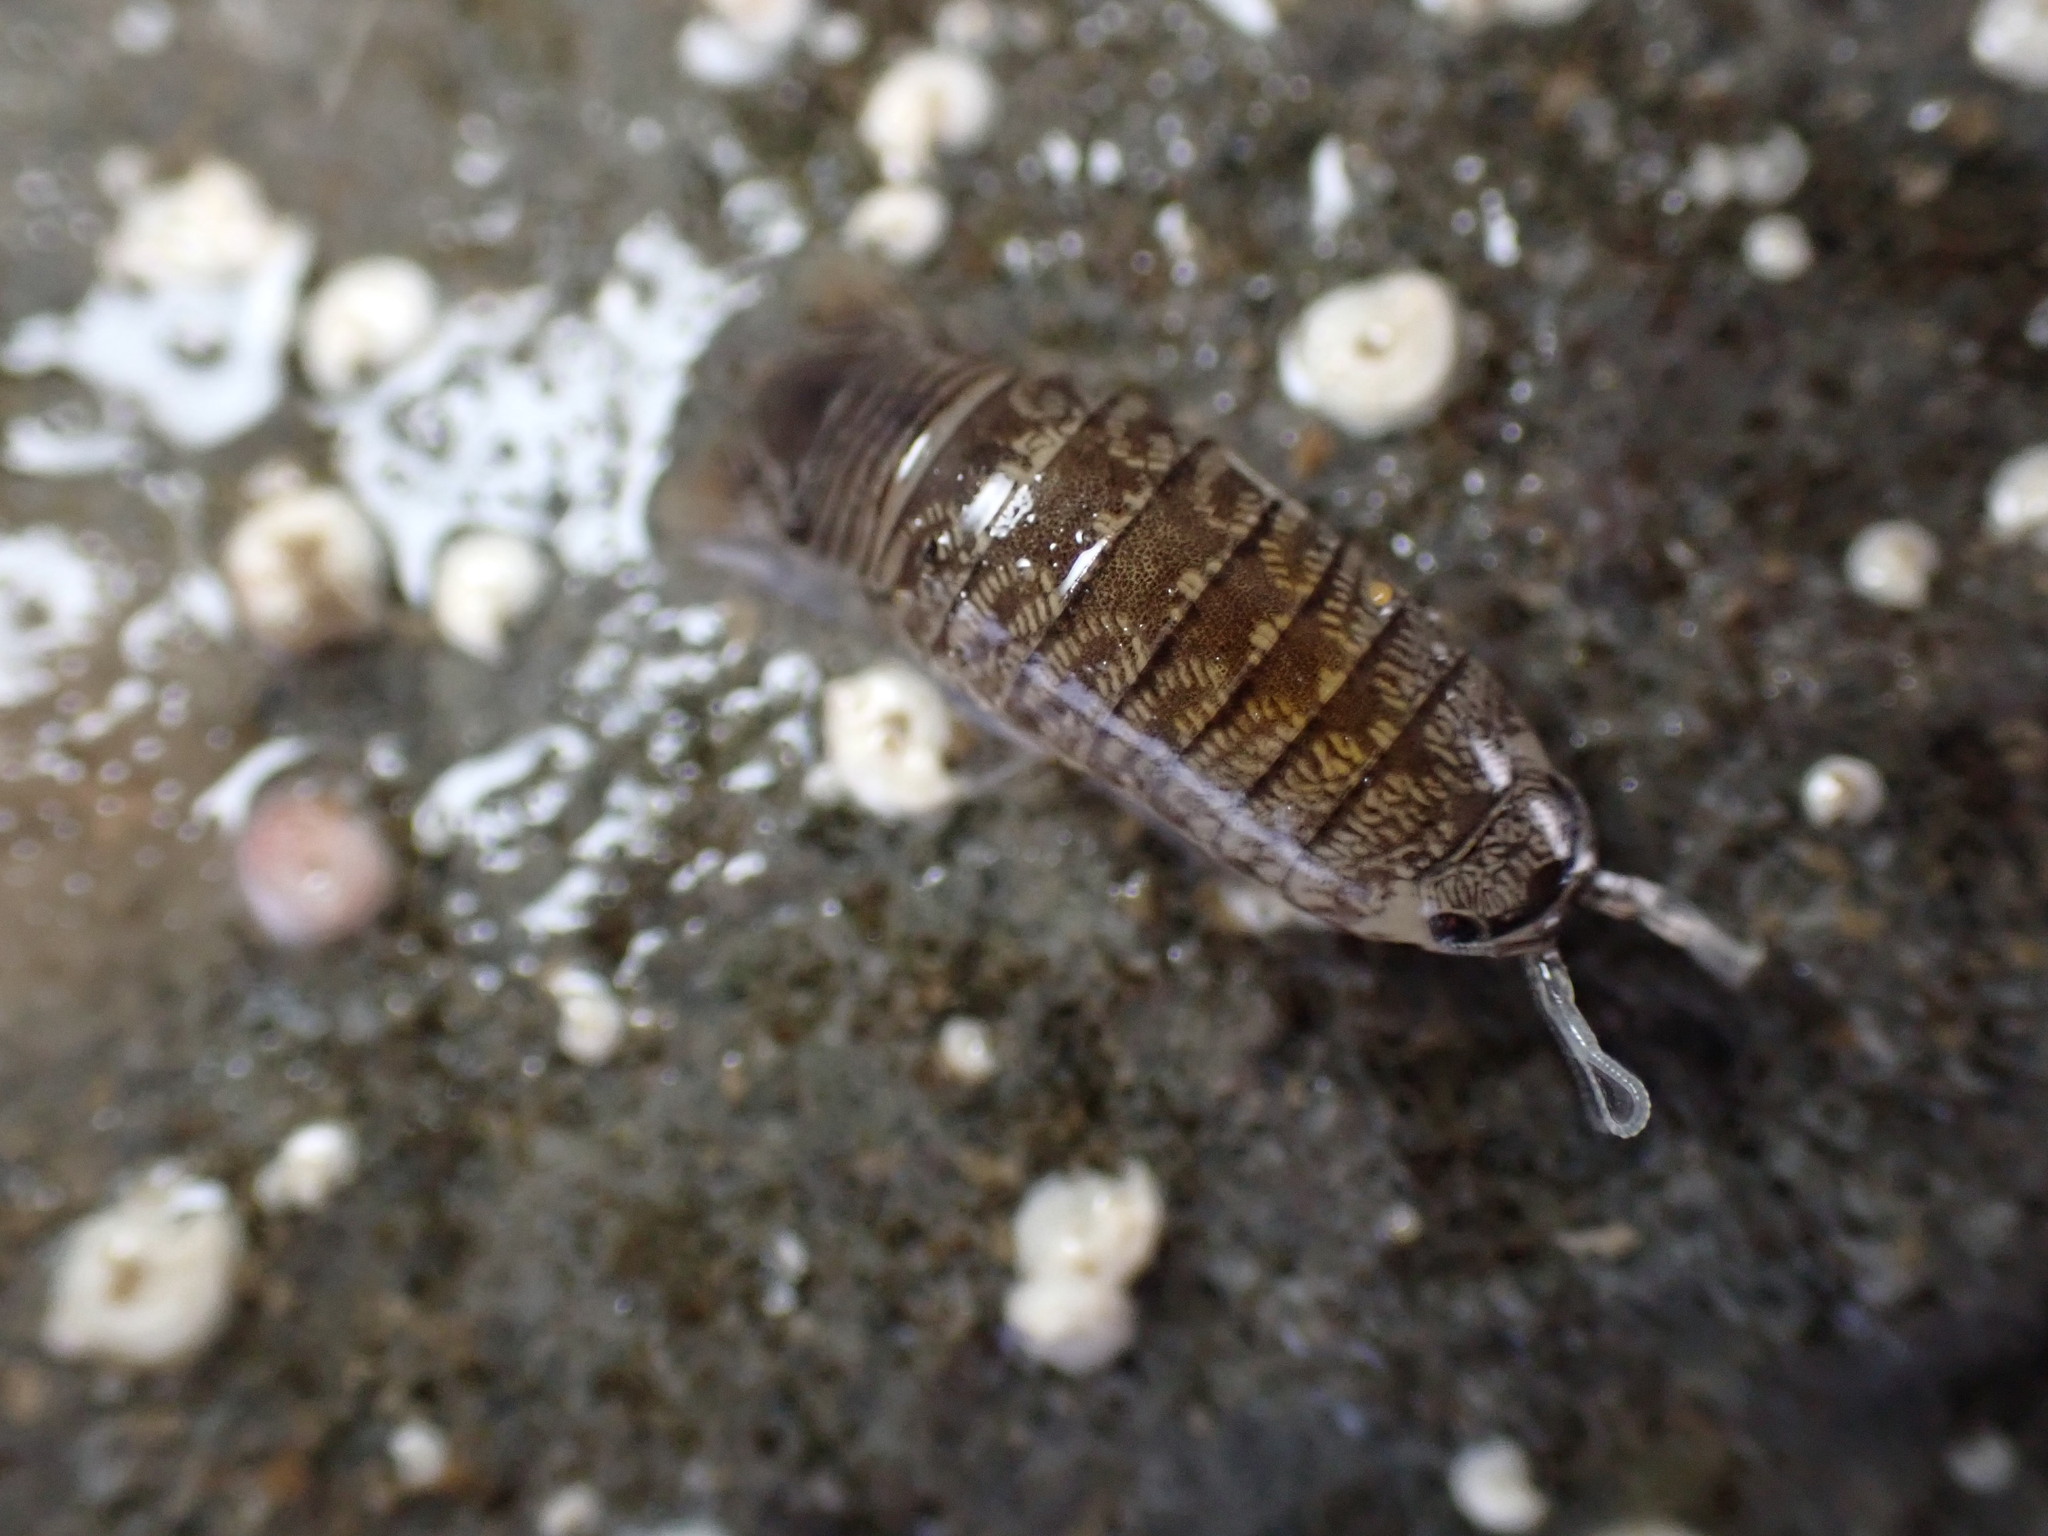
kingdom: Animalia
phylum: Arthropoda
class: Malacostraca
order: Isopoda
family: Cirolanidae
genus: Cirolana
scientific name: Cirolana harfordi
